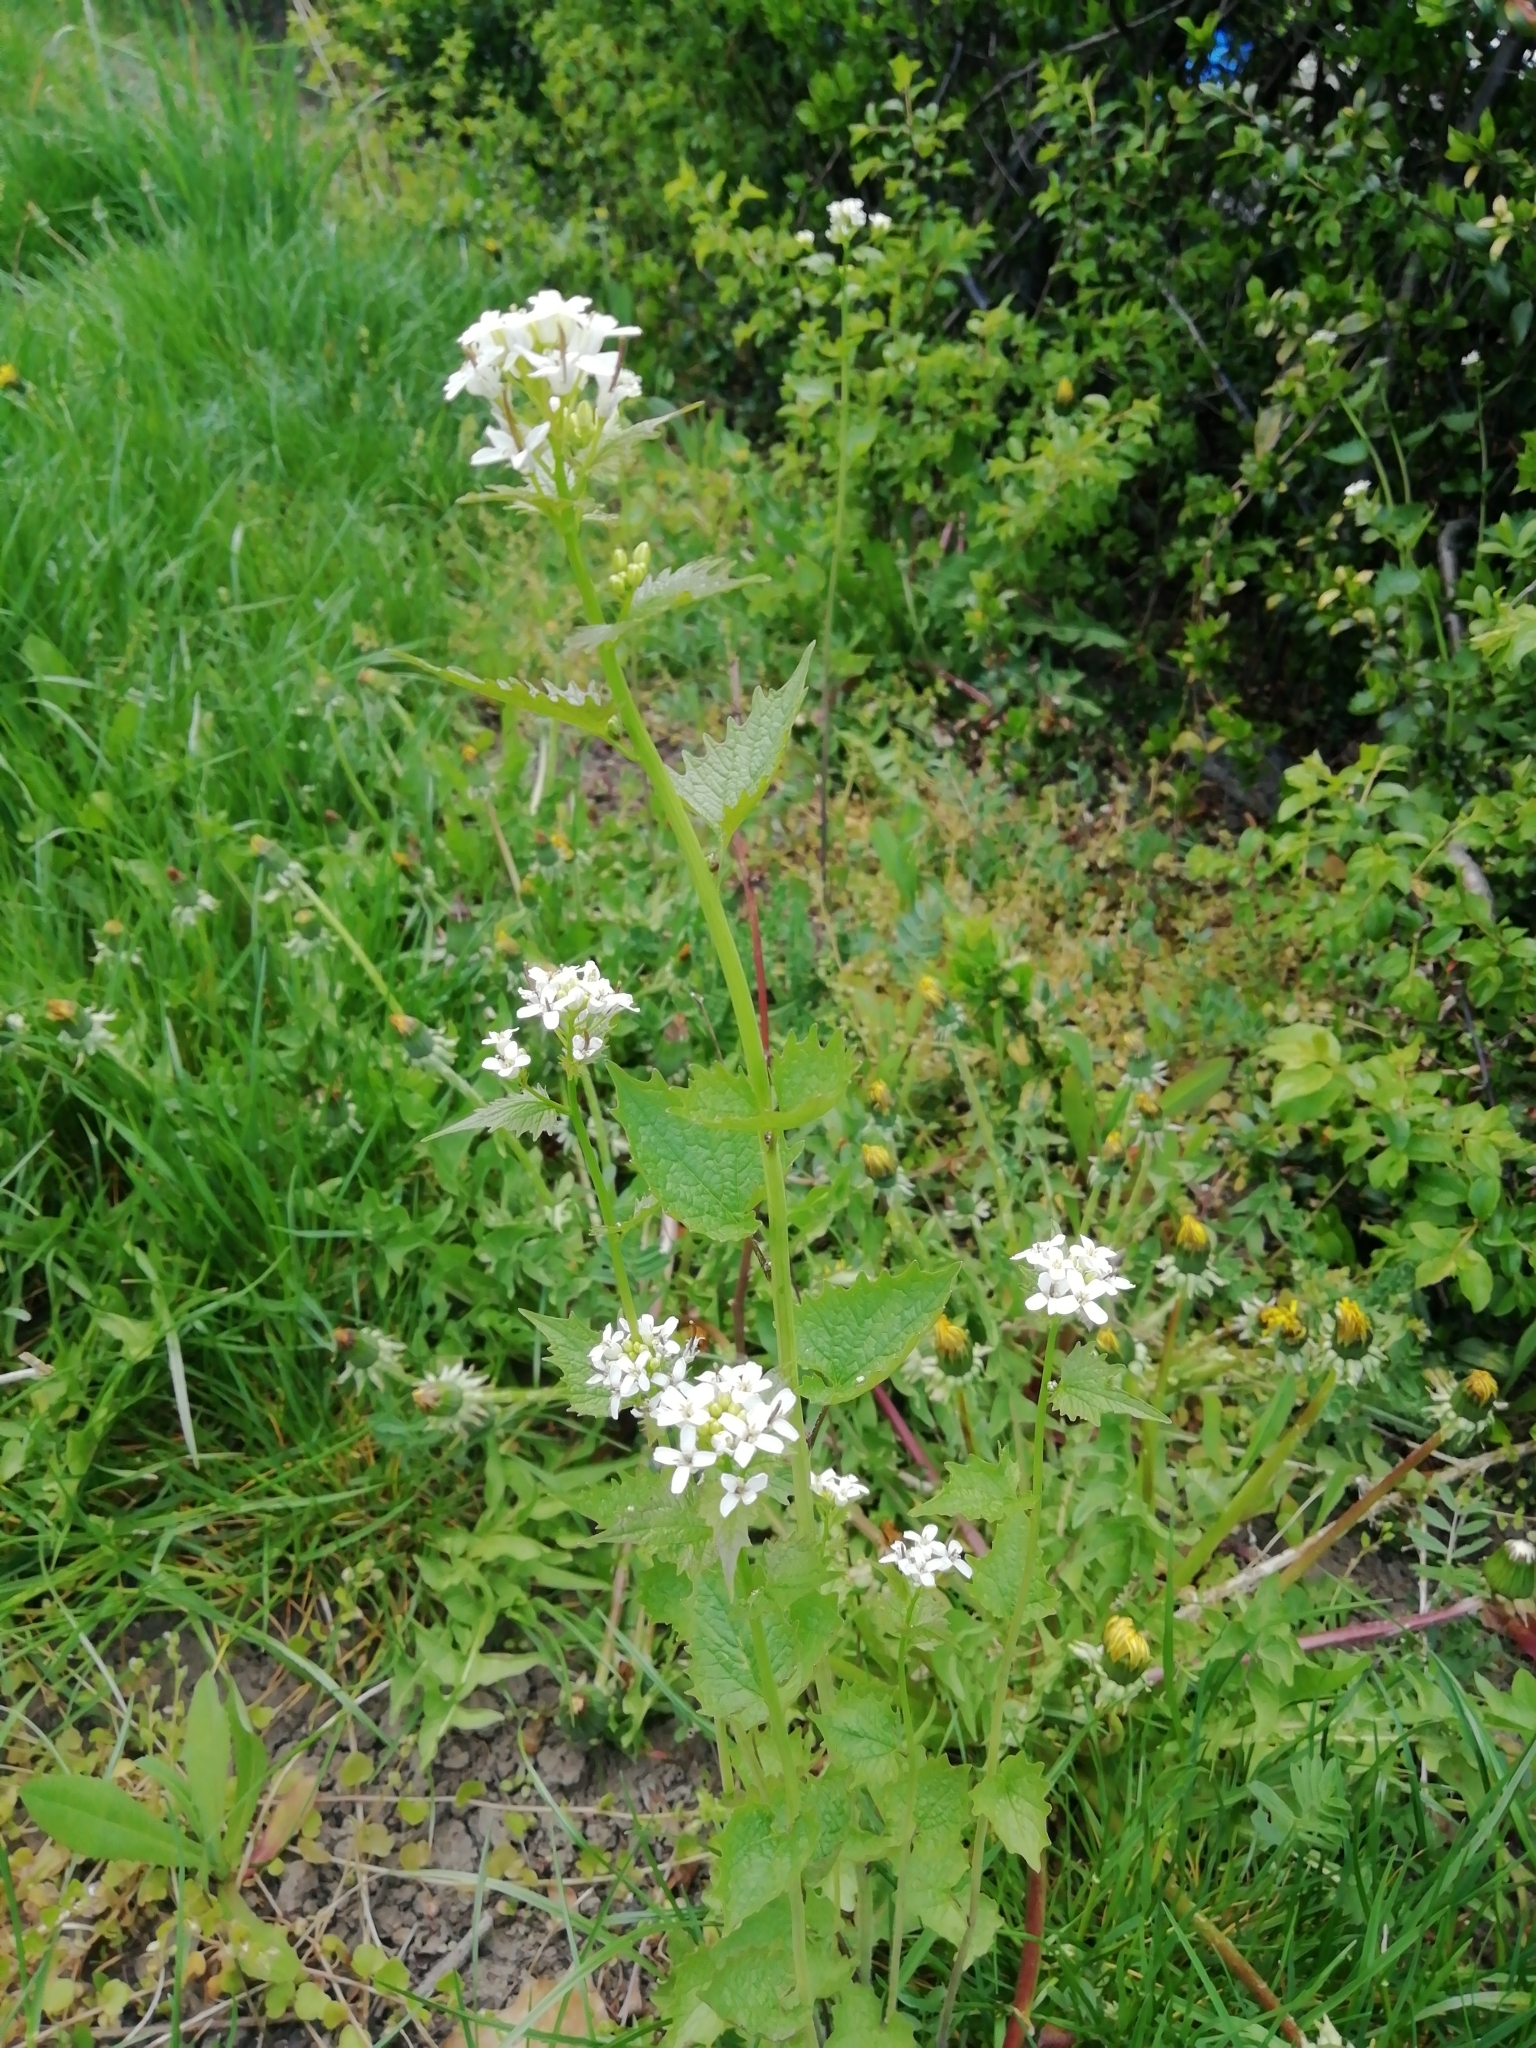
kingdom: Plantae
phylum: Tracheophyta
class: Magnoliopsida
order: Brassicales
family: Brassicaceae
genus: Alliaria
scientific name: Alliaria petiolata
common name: Garlic mustard
